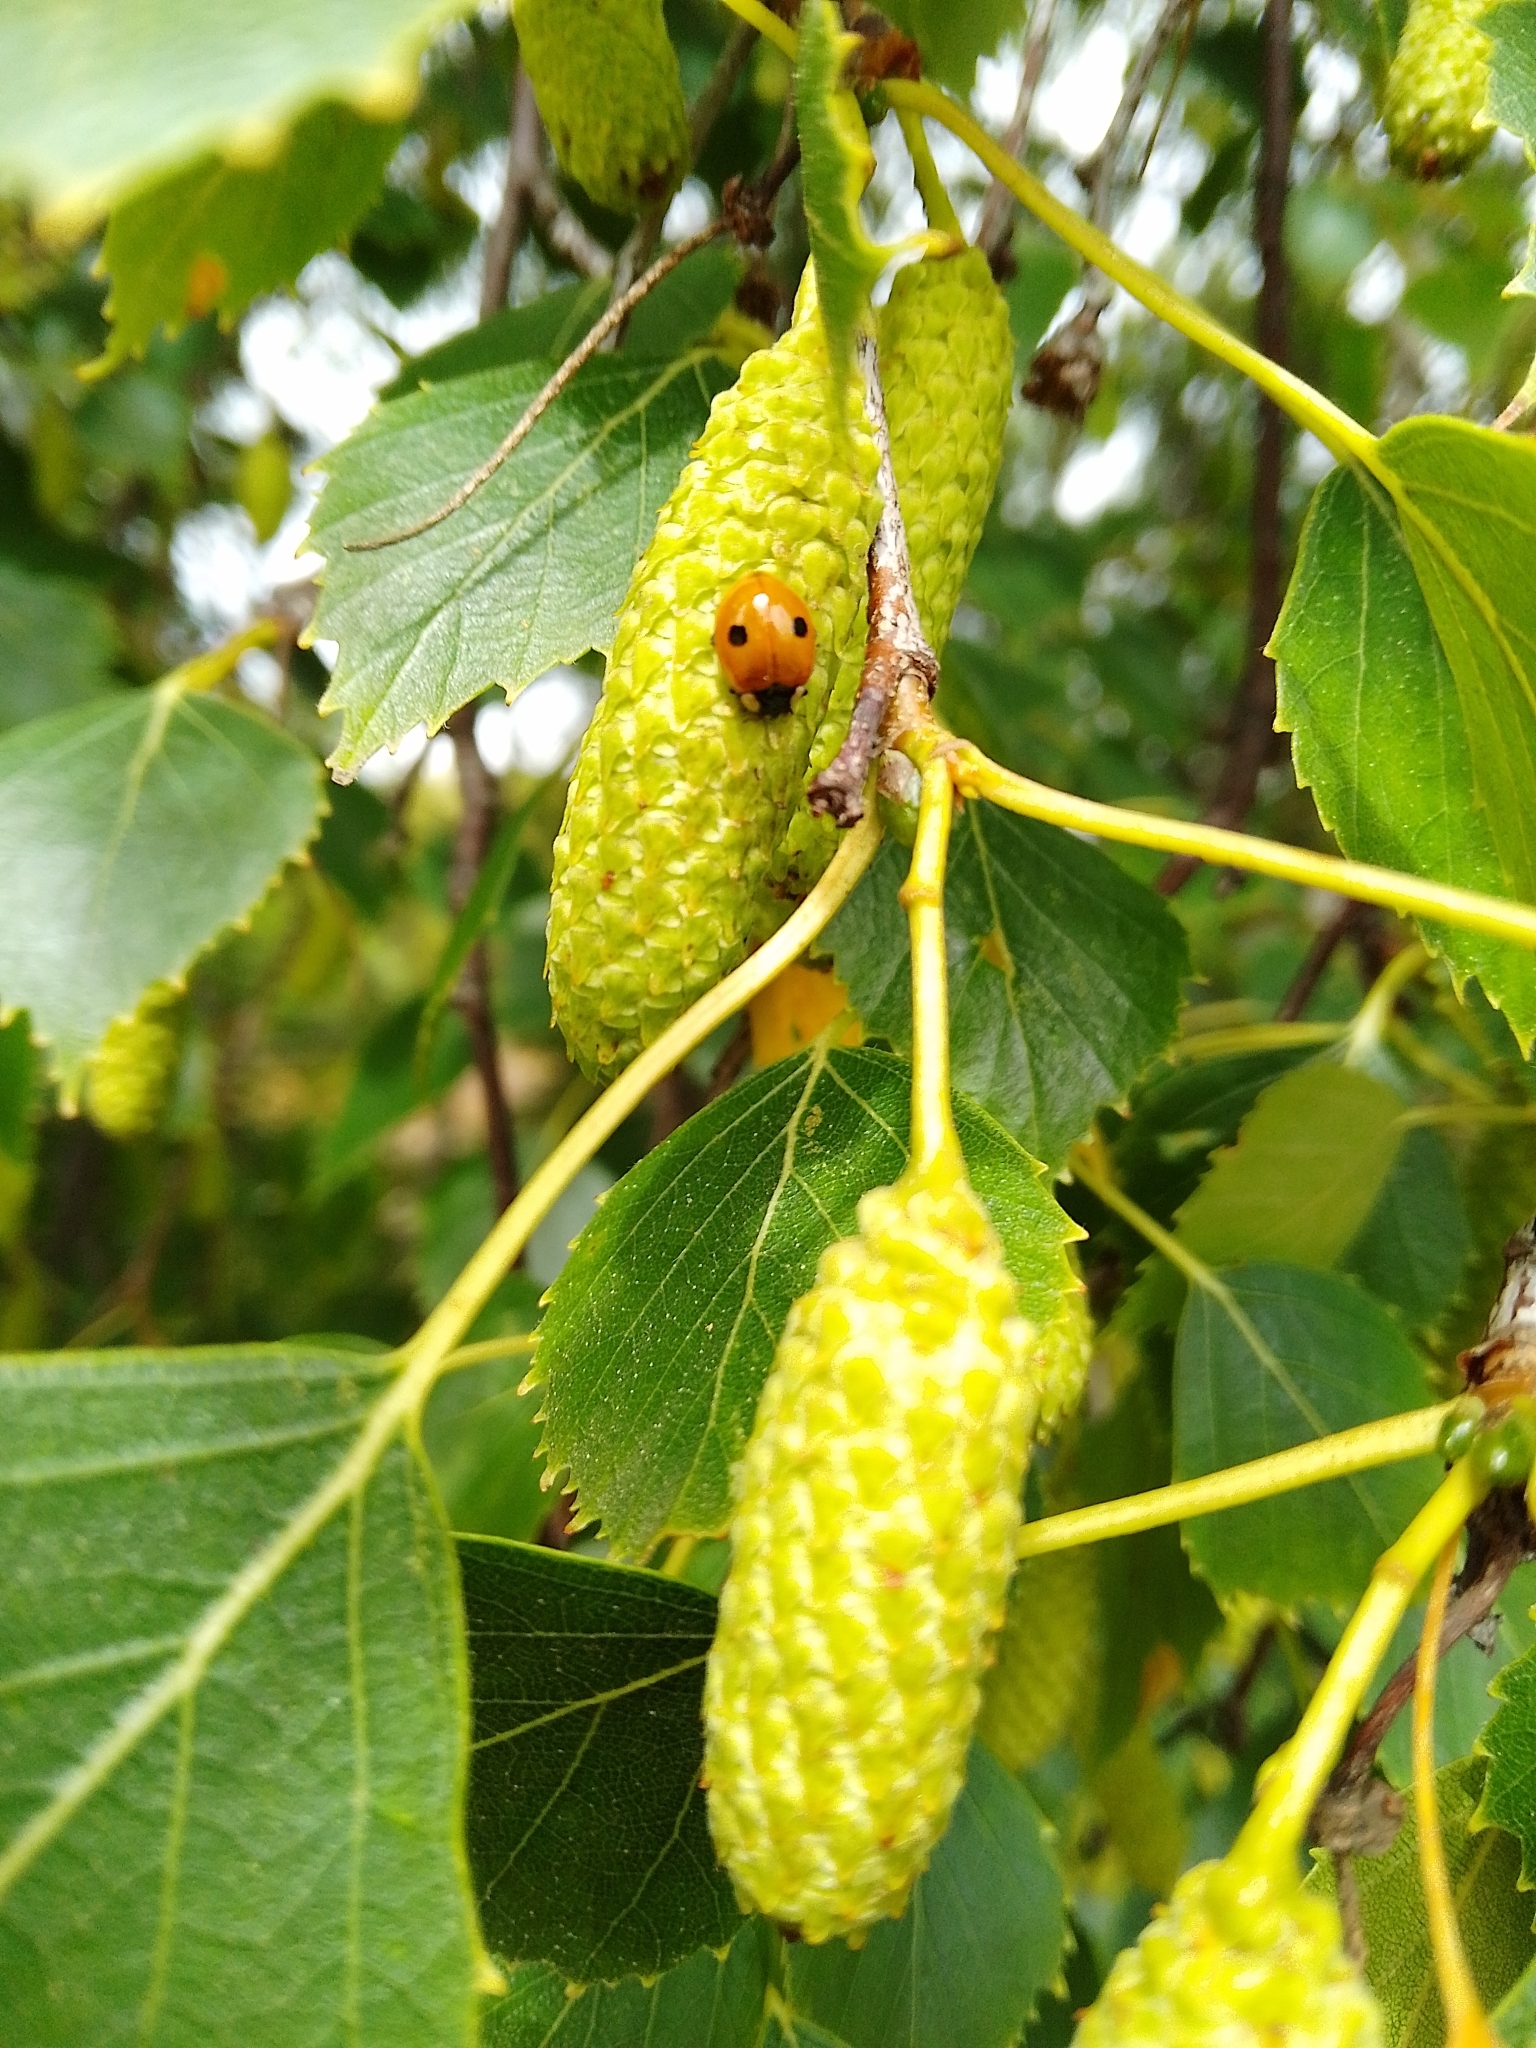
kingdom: Animalia
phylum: Arthropoda
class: Insecta
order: Coleoptera
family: Coccinellidae
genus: Adalia
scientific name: Adalia bipunctata
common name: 2-spot ladybird
